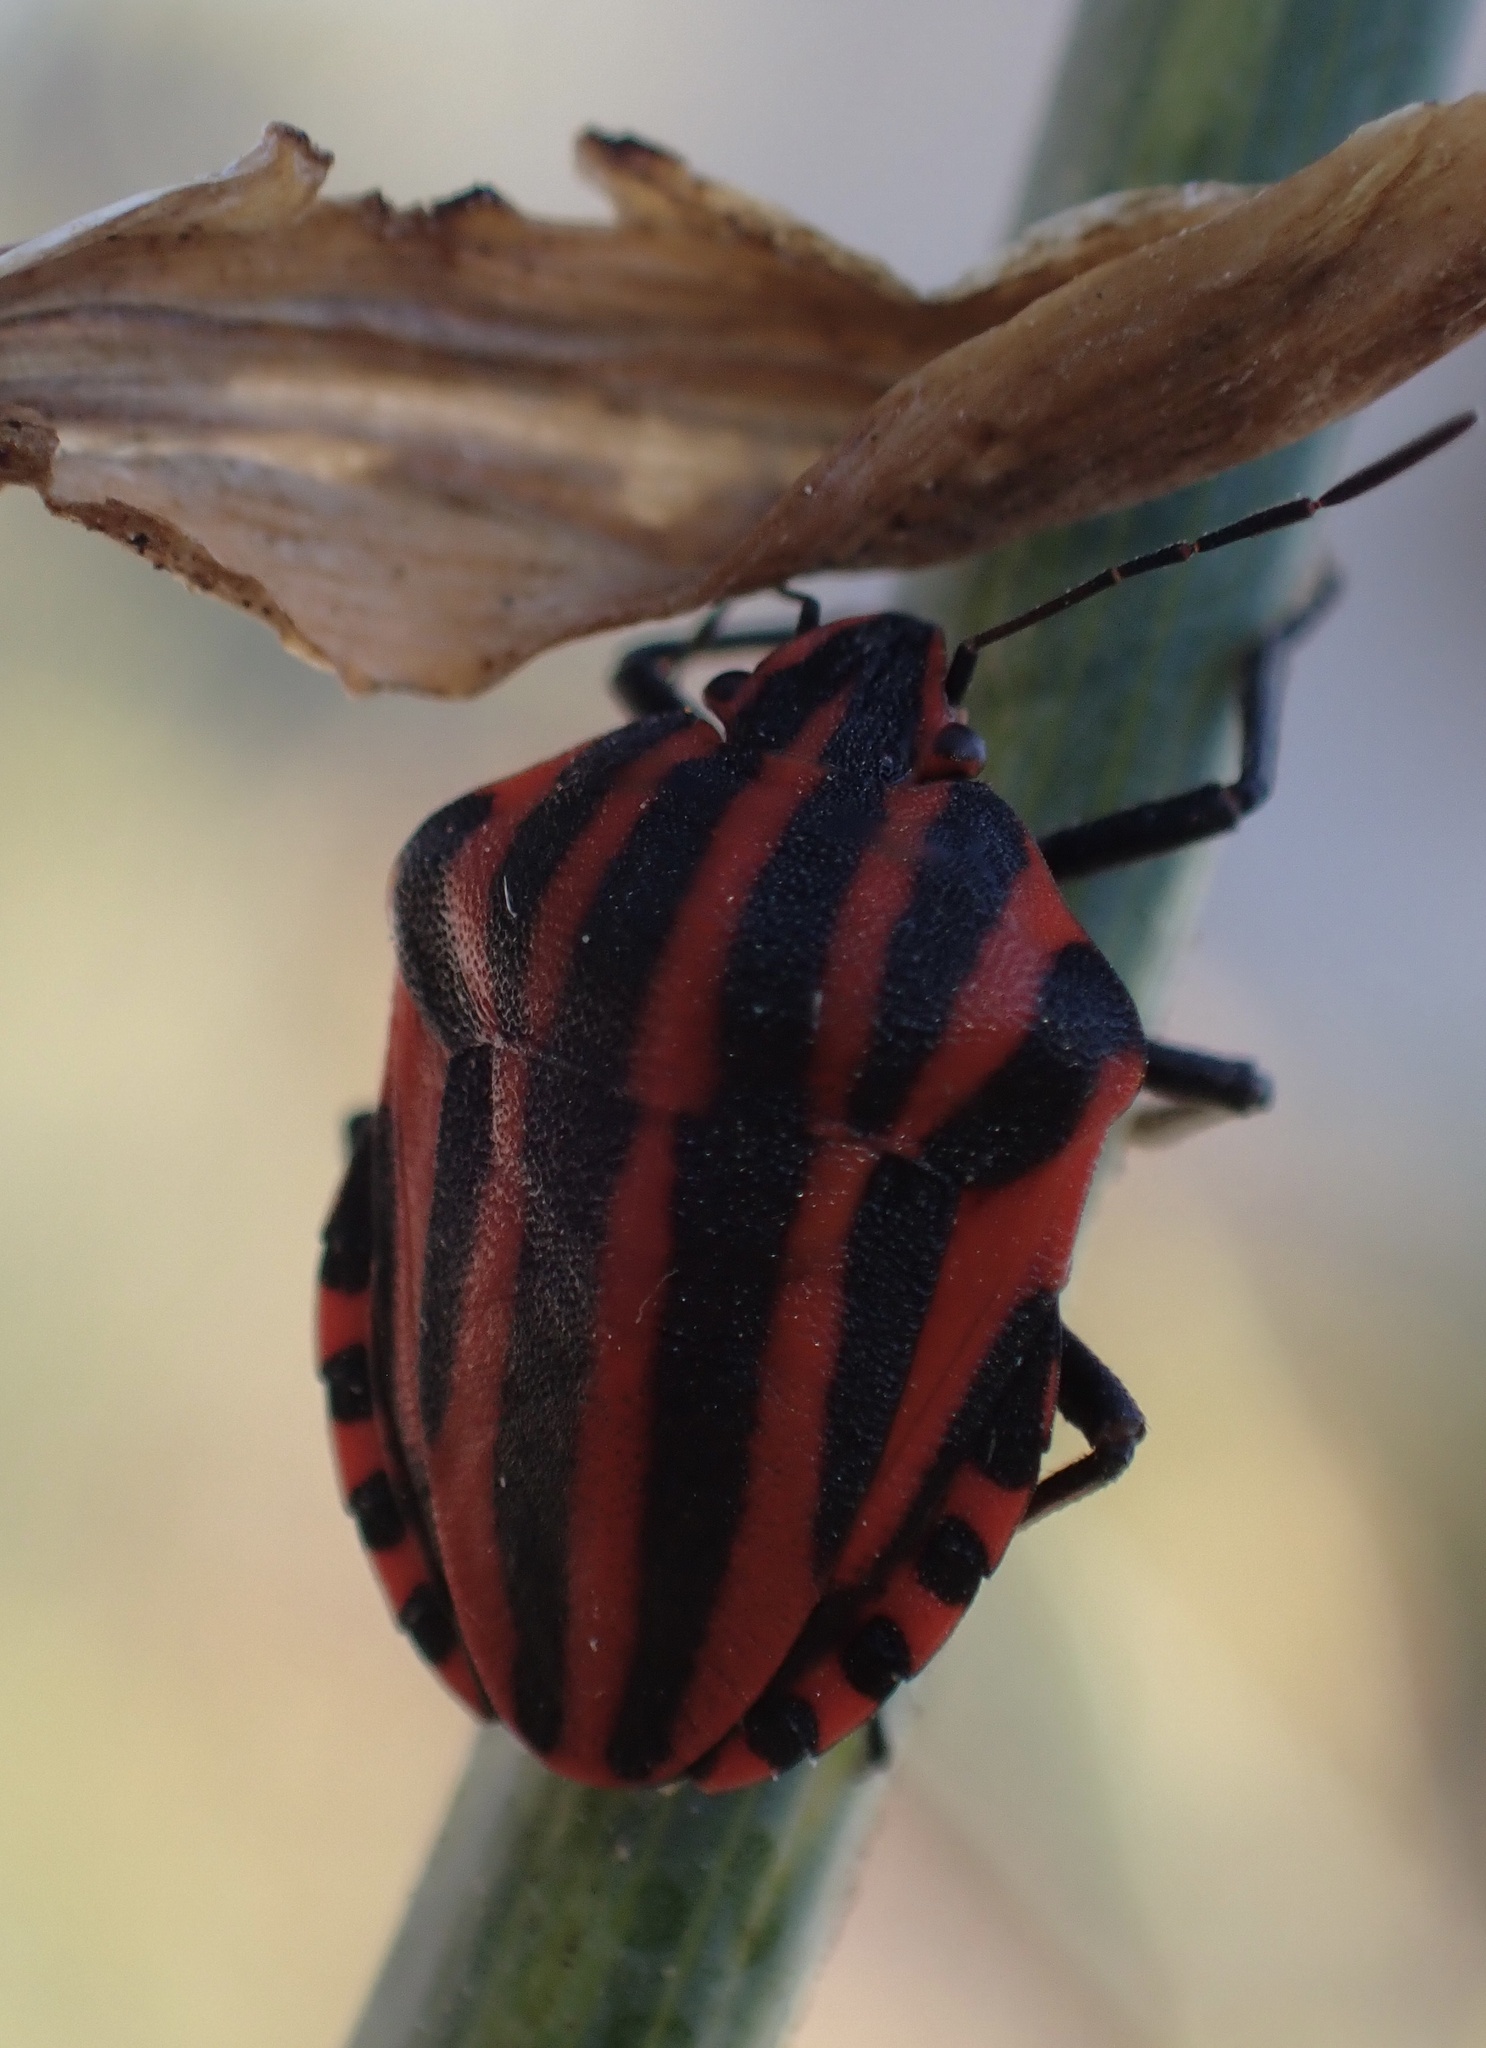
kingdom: Animalia
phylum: Arthropoda
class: Insecta
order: Hemiptera
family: Pentatomidae
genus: Graphosoma
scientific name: Graphosoma italicum
